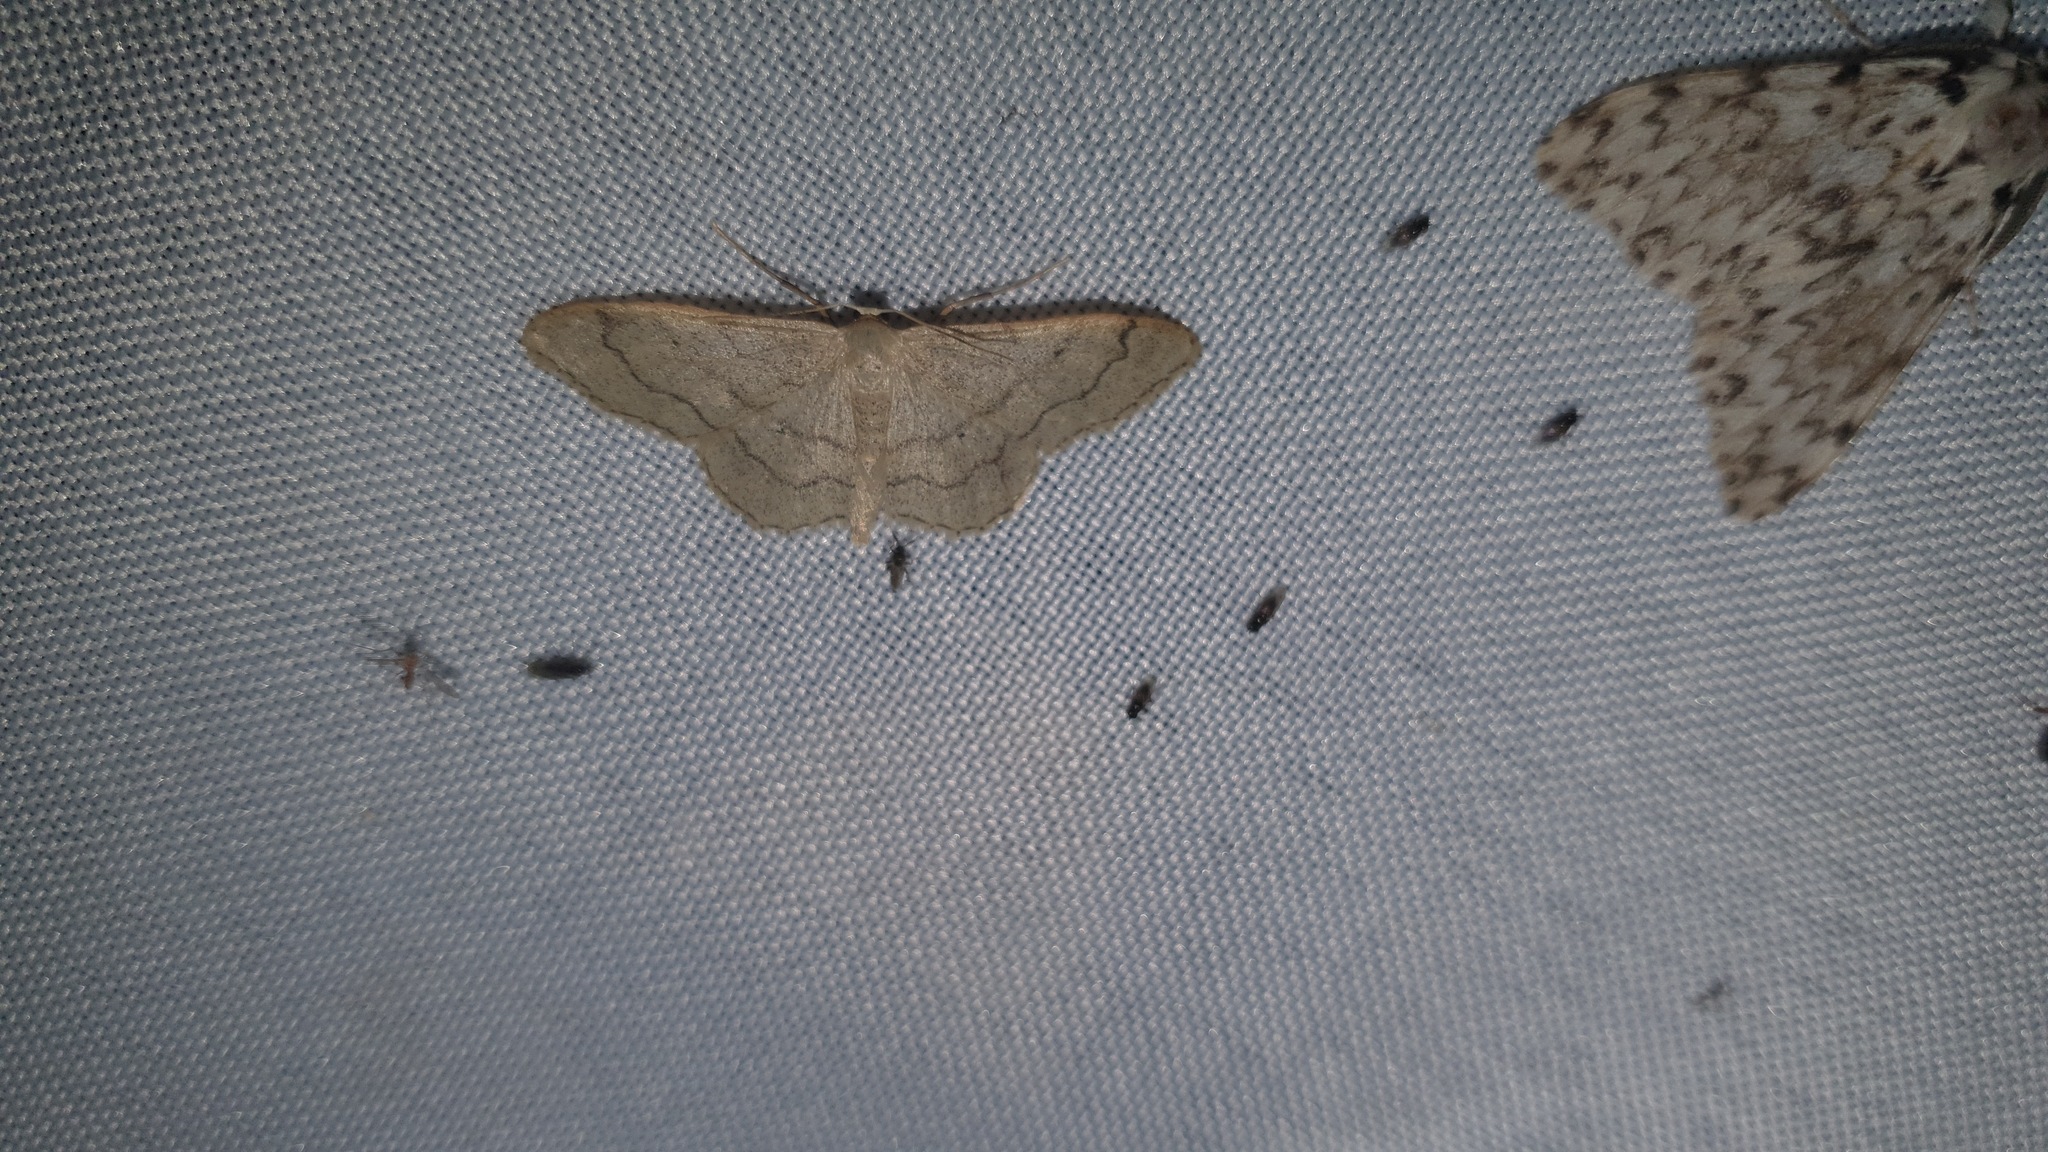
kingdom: Animalia
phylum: Arthropoda
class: Insecta
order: Lepidoptera
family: Geometridae
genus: Idaea
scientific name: Idaea aversata
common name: Riband wave
